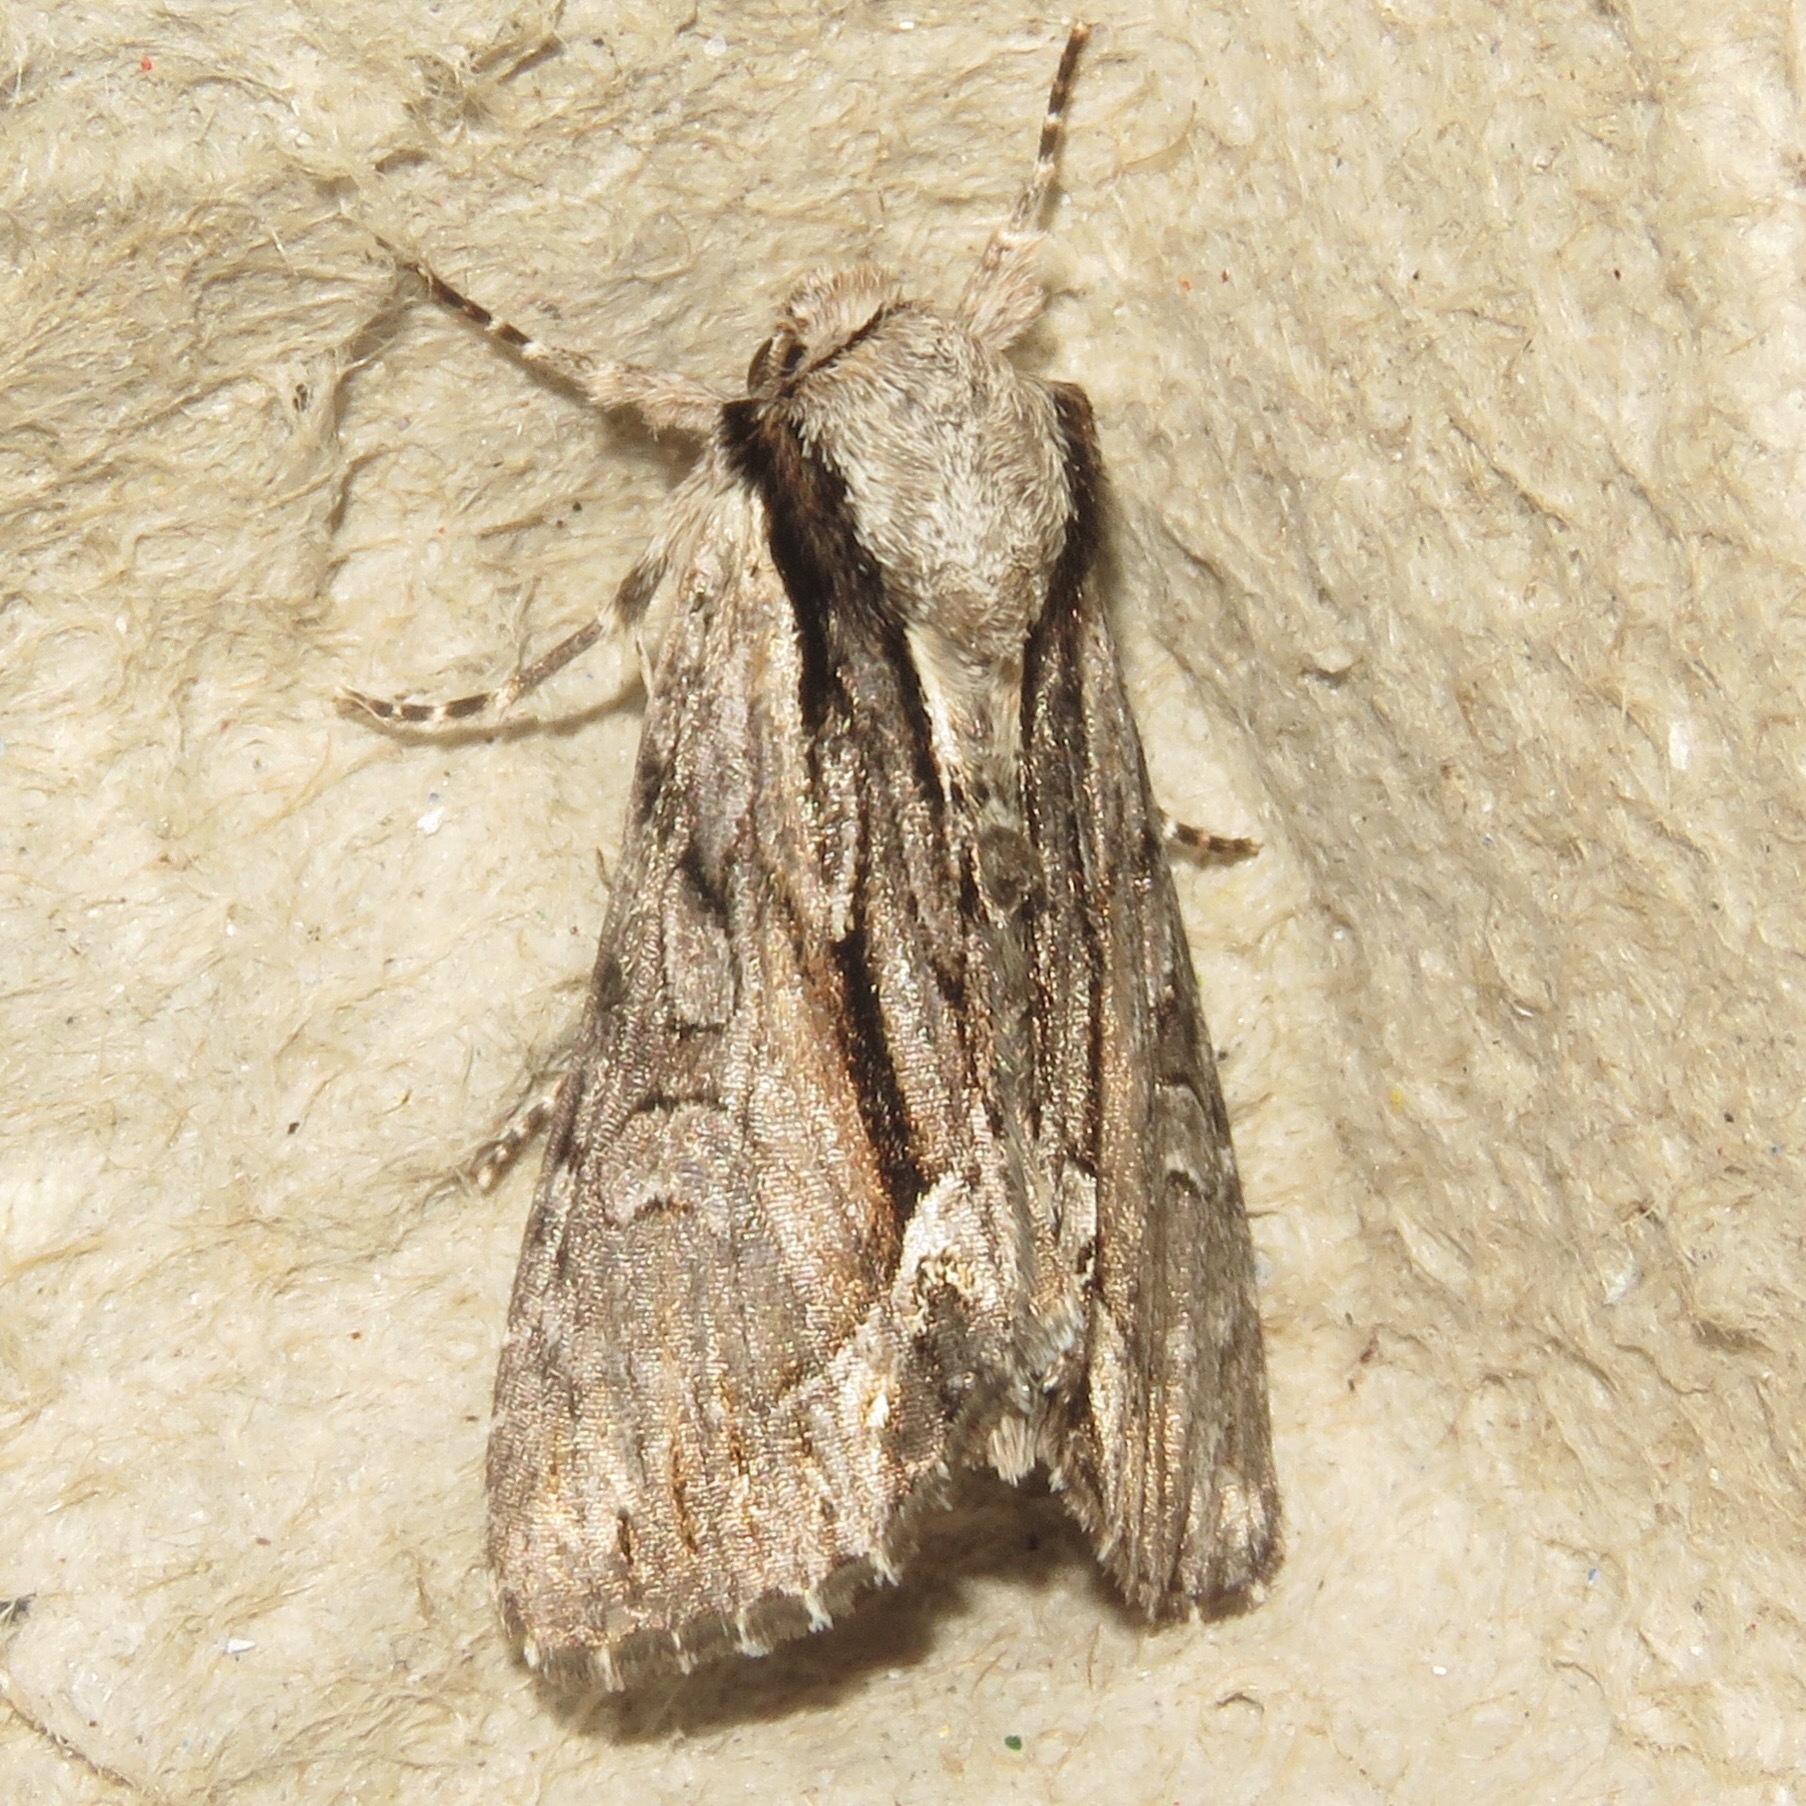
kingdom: Animalia
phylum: Arthropoda
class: Insecta
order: Lepidoptera
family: Noctuidae
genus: Hyppa
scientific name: Hyppa xylinoides
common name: Common hyppa moth
